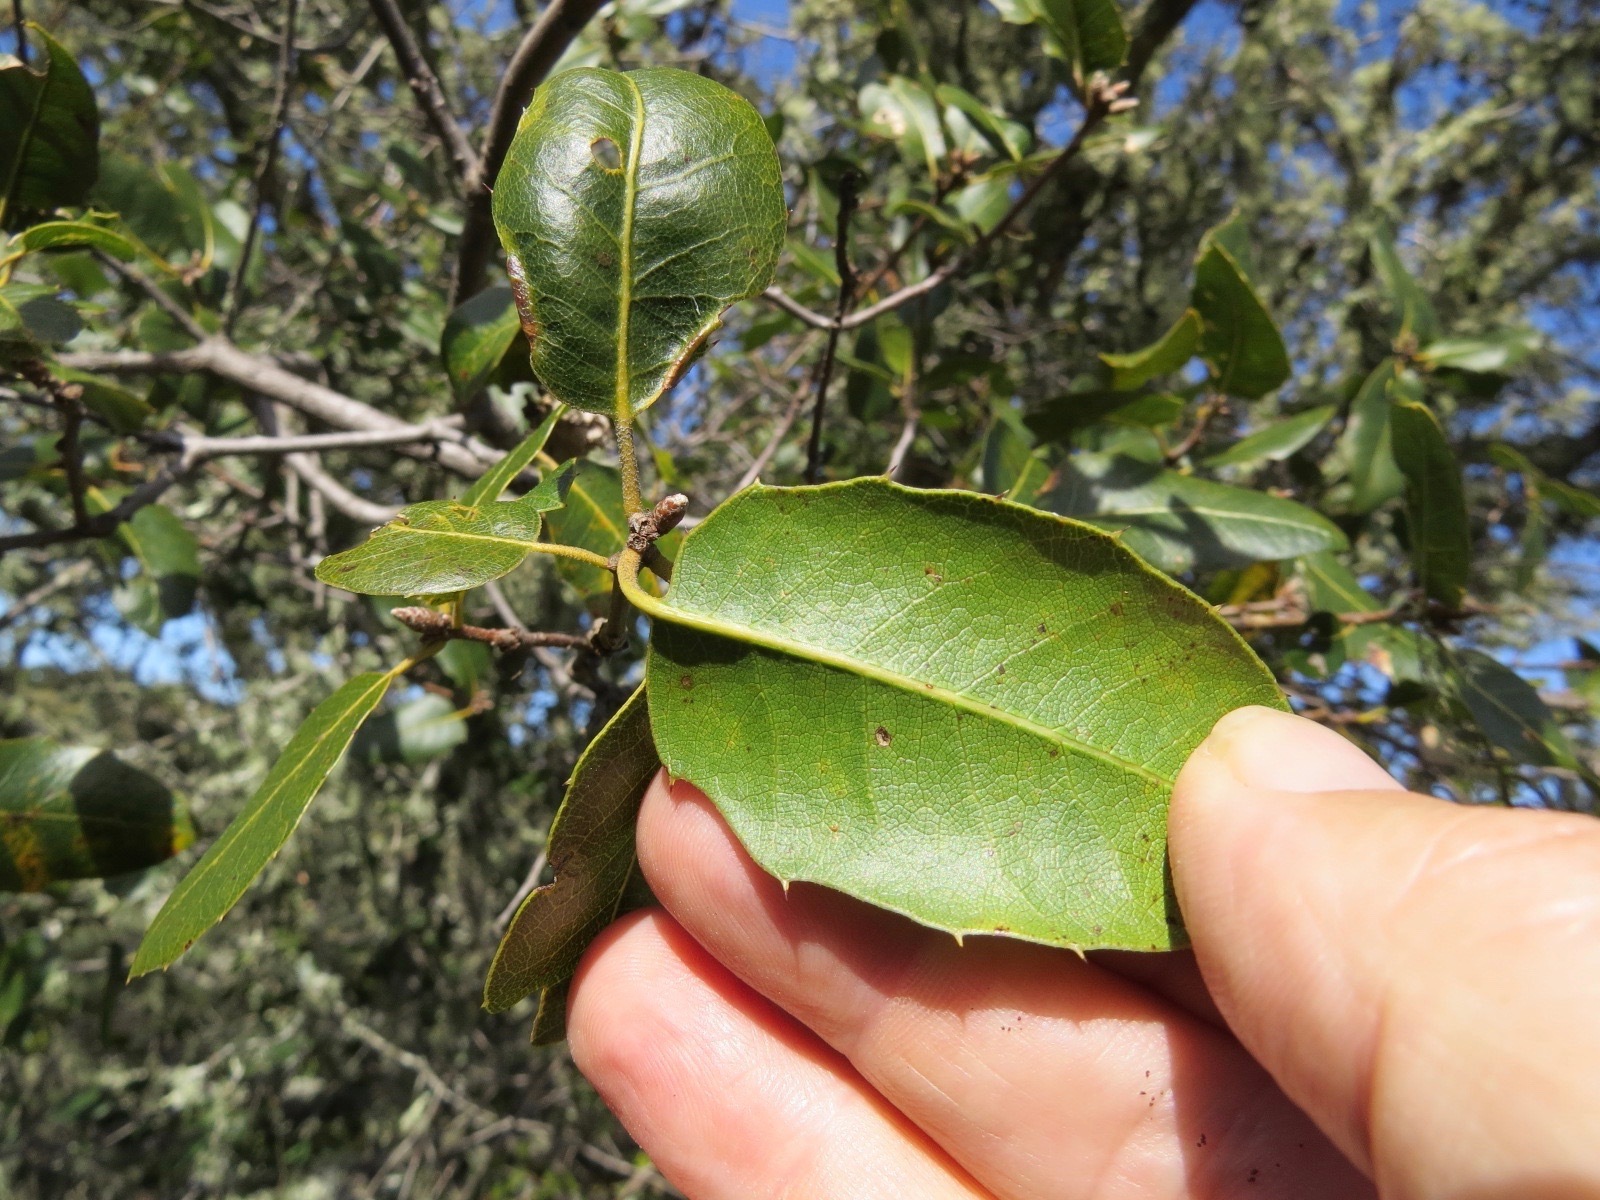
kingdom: Animalia
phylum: Arthropoda
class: Insecta
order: Hymenoptera
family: Cynipidae
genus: Callirhytis
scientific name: Callirhytis
